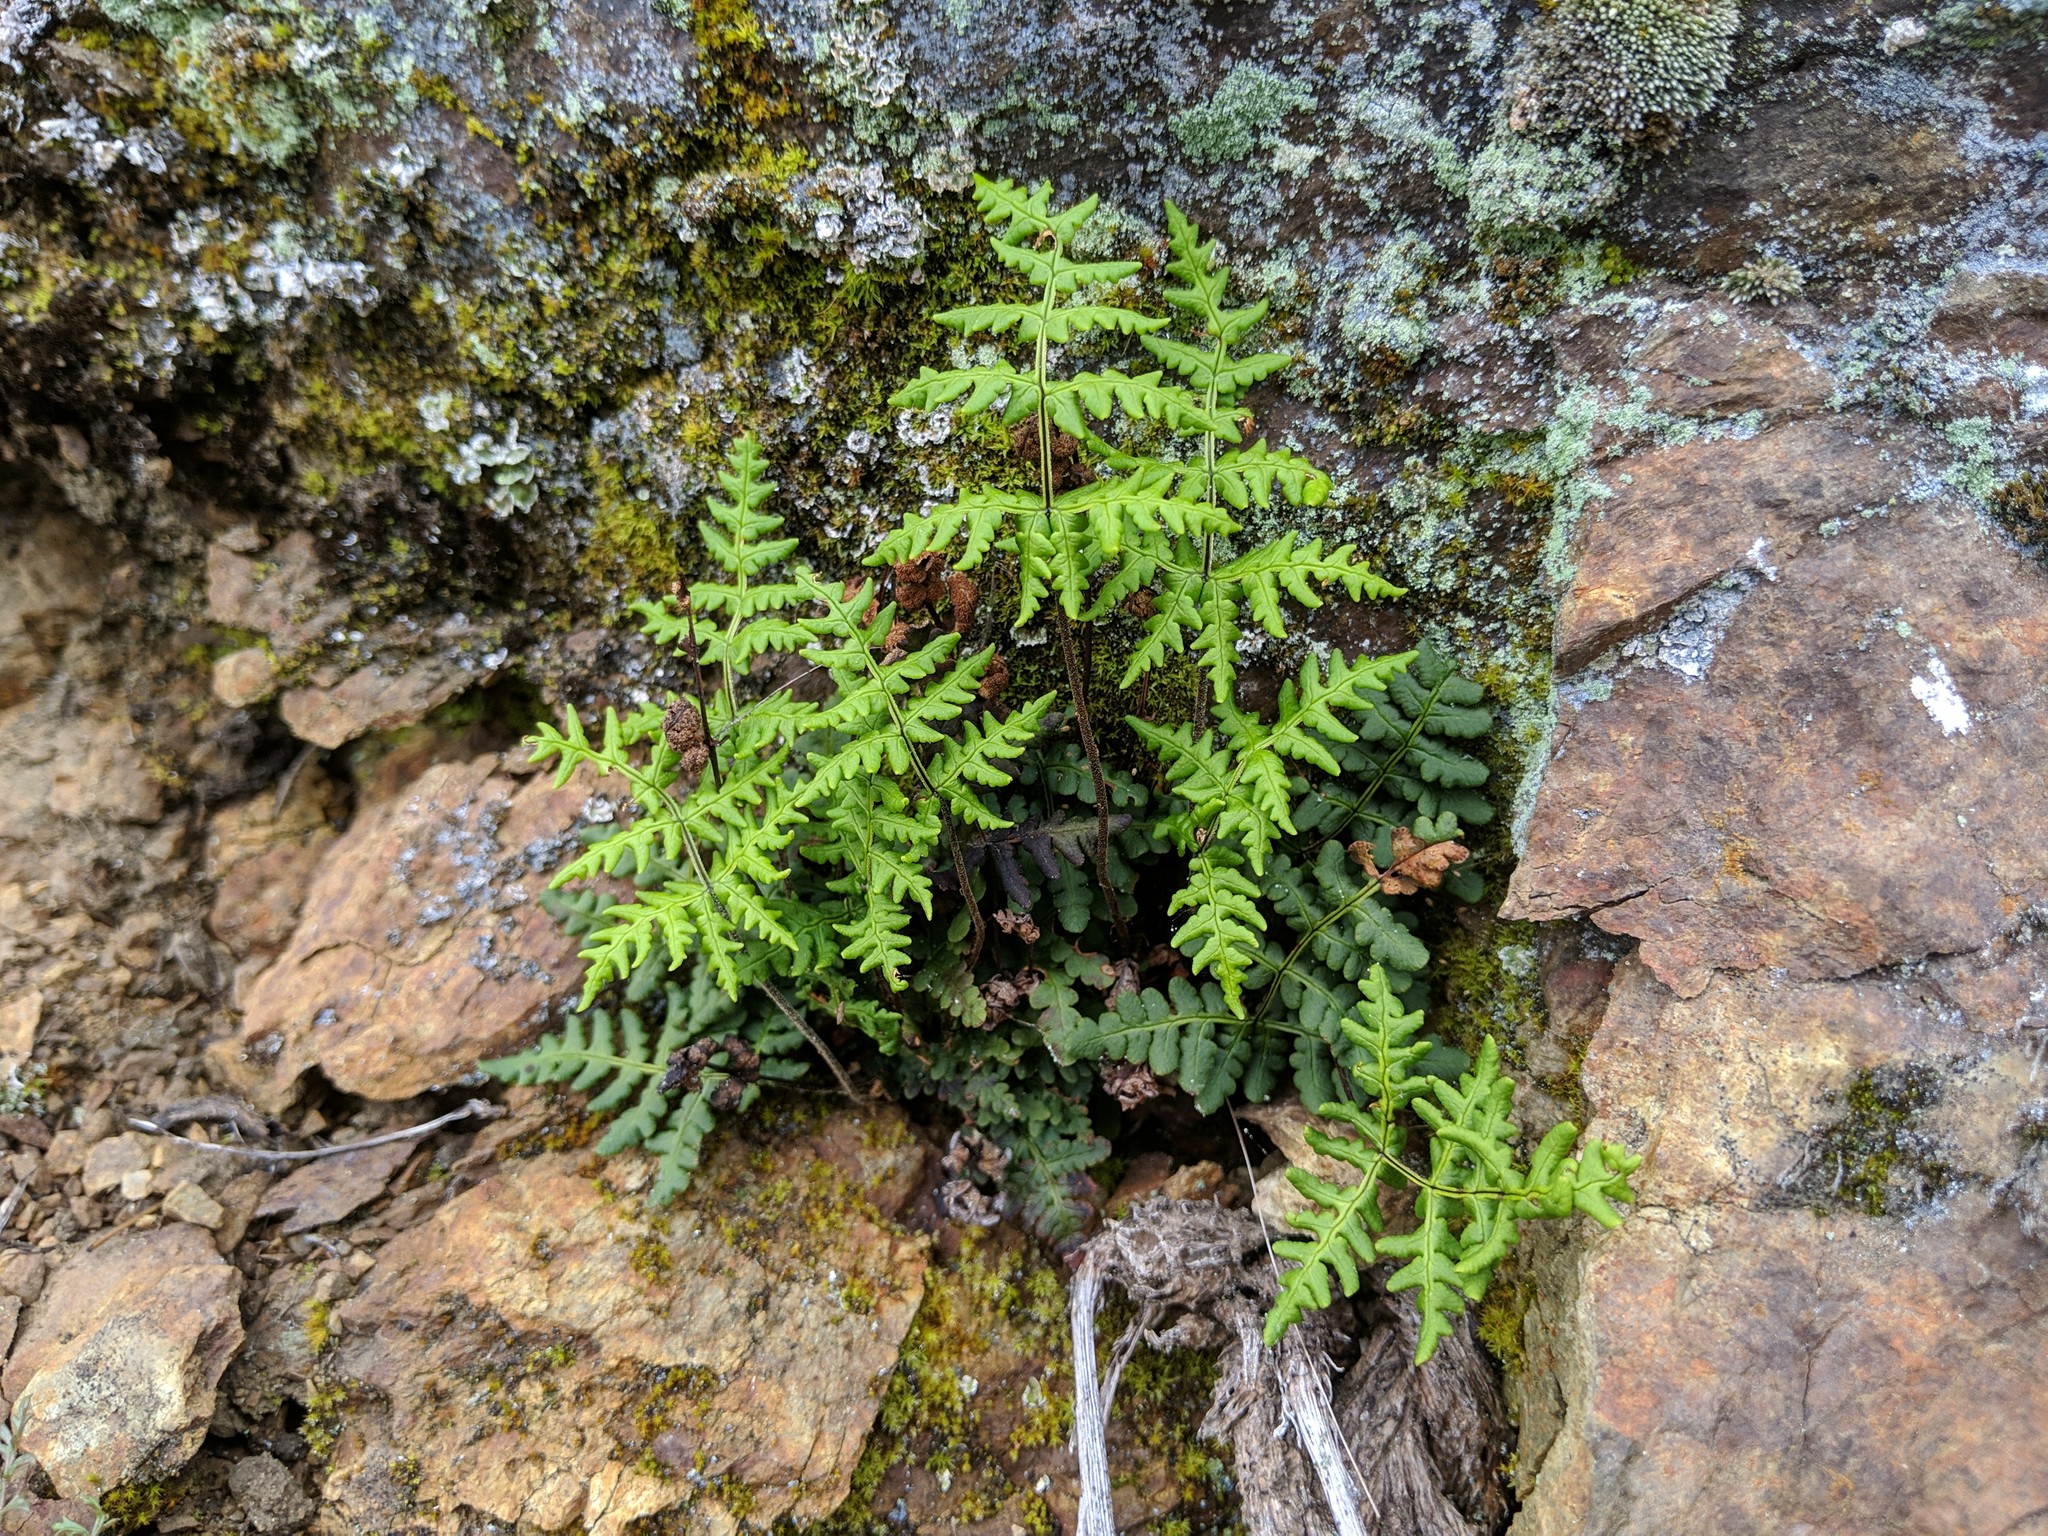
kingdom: Plantae
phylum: Tracheophyta
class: Polypodiopsida
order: Polypodiales
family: Pteridaceae
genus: Pentagramma
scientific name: Pentagramma triangularis
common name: Gold fern
